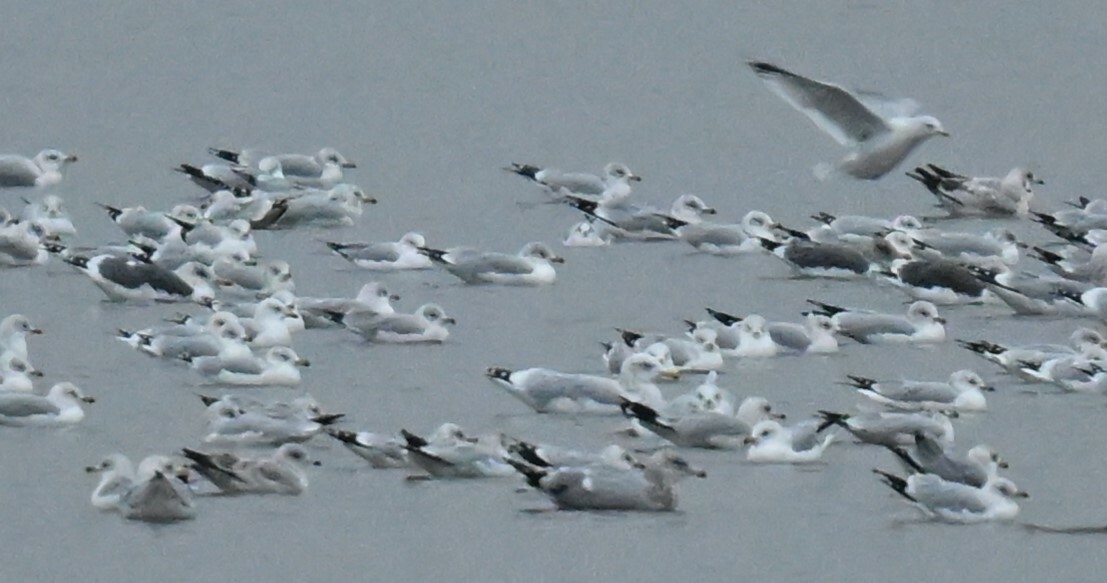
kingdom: Animalia
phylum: Chordata
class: Aves
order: Charadriiformes
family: Laridae
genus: Larus
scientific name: Larus fuscus
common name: Lesser black-backed gull
